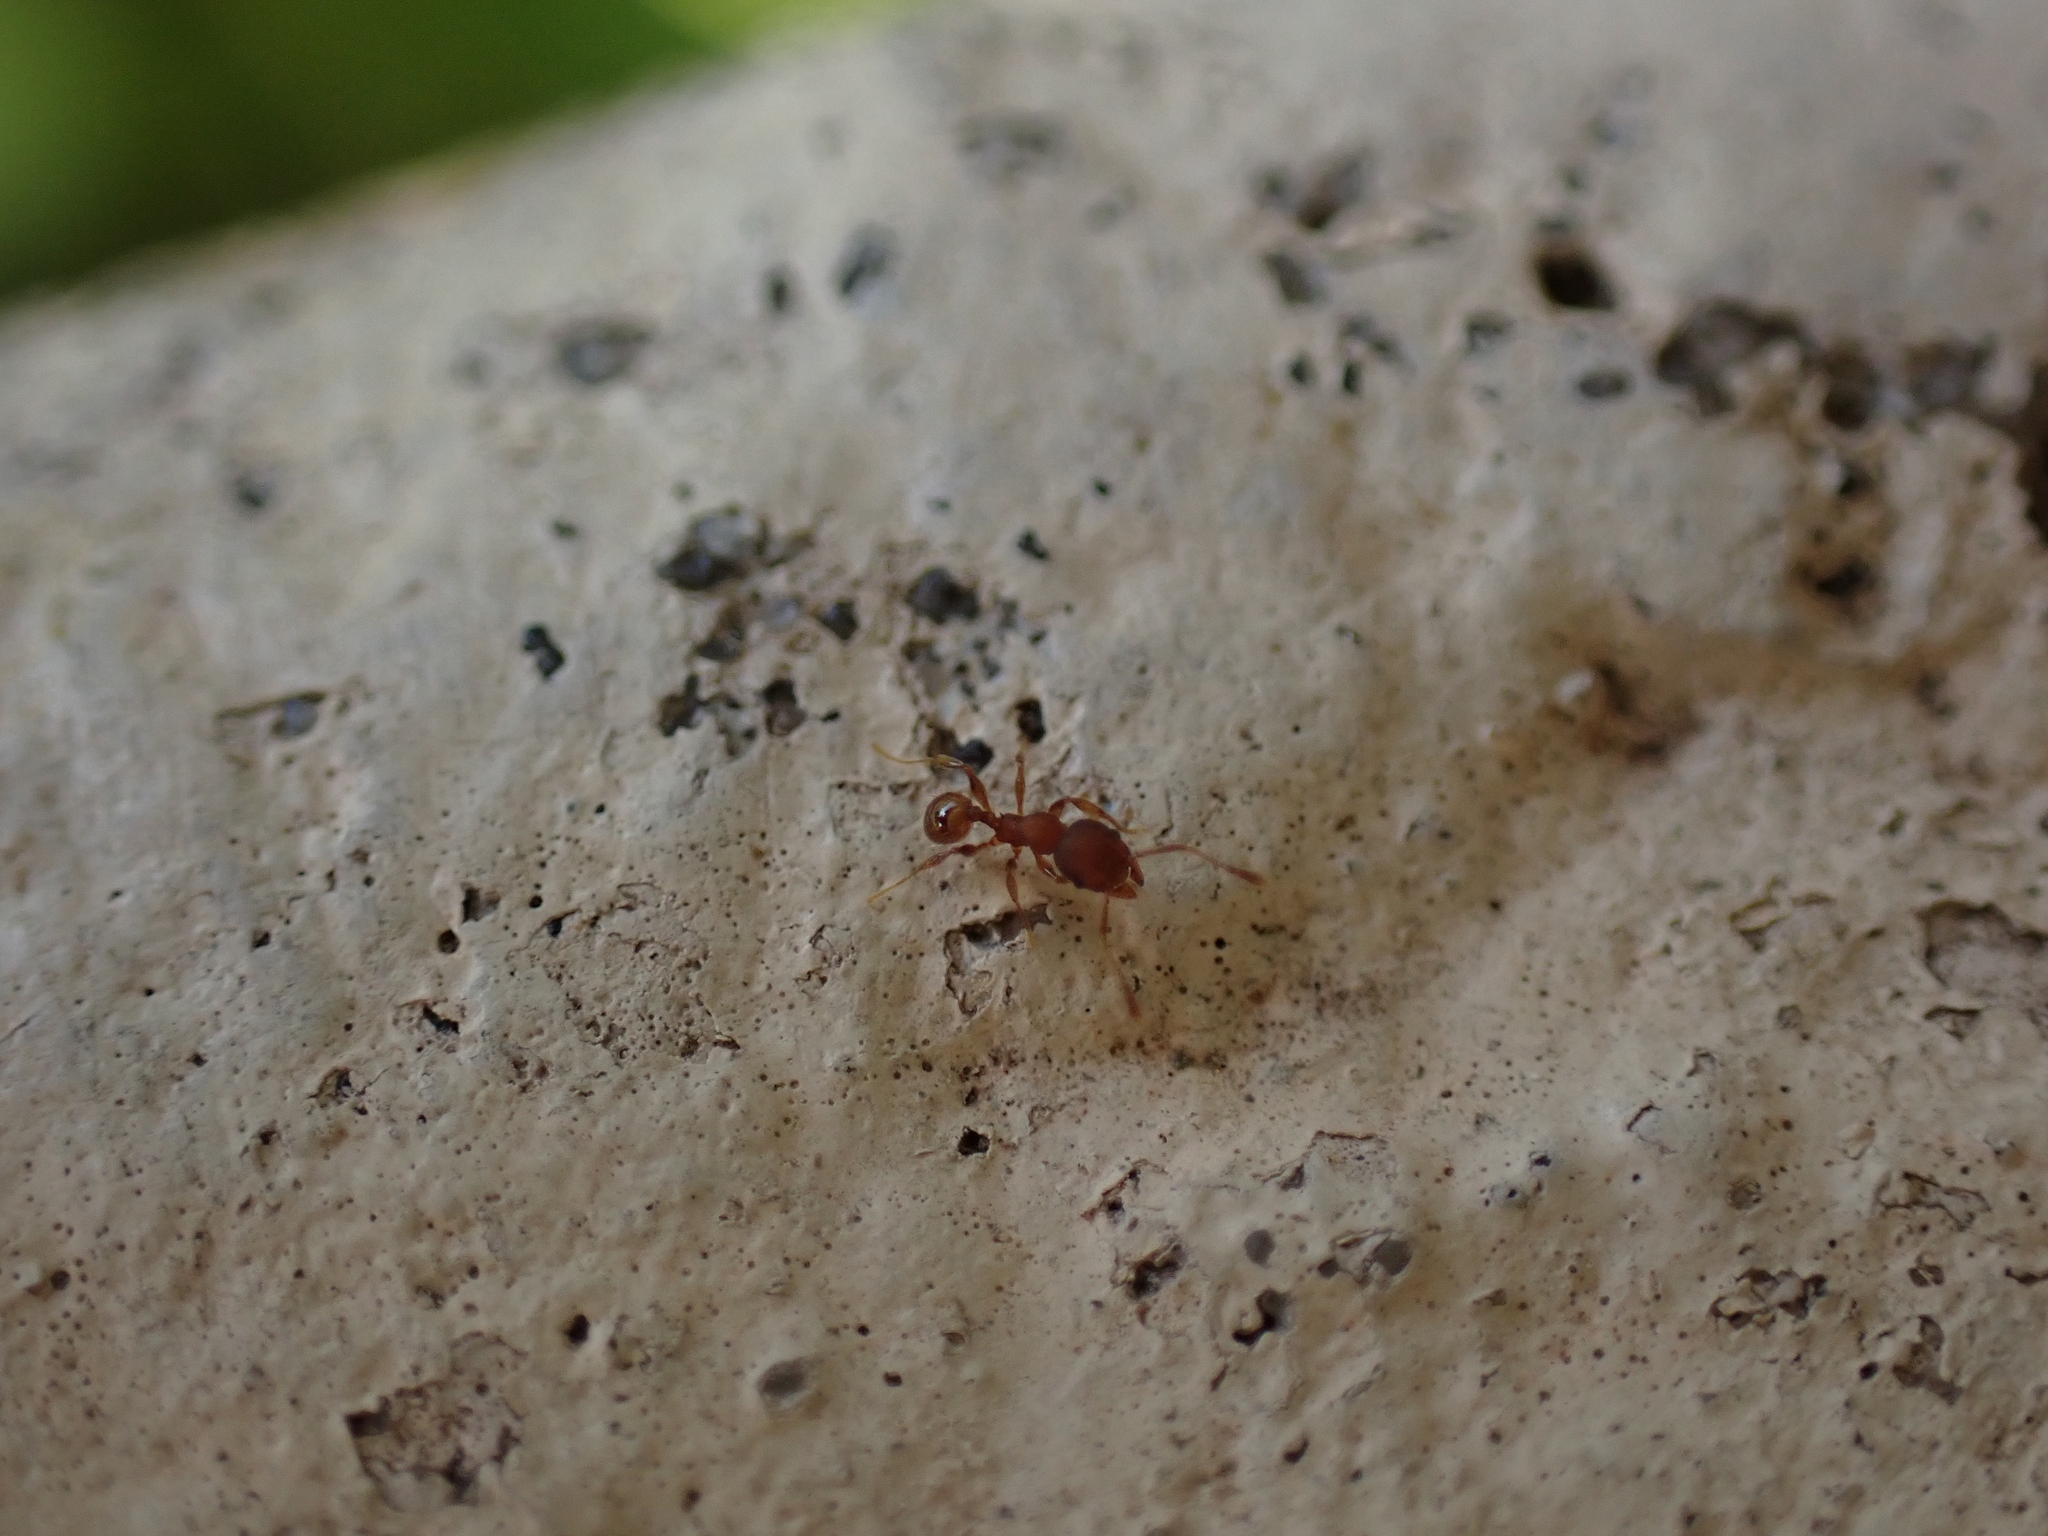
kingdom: Animalia
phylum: Arthropoda
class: Insecta
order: Hymenoptera
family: Formicidae
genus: Pheidole
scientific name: Pheidole navigans
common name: Navigating big-headed ant
